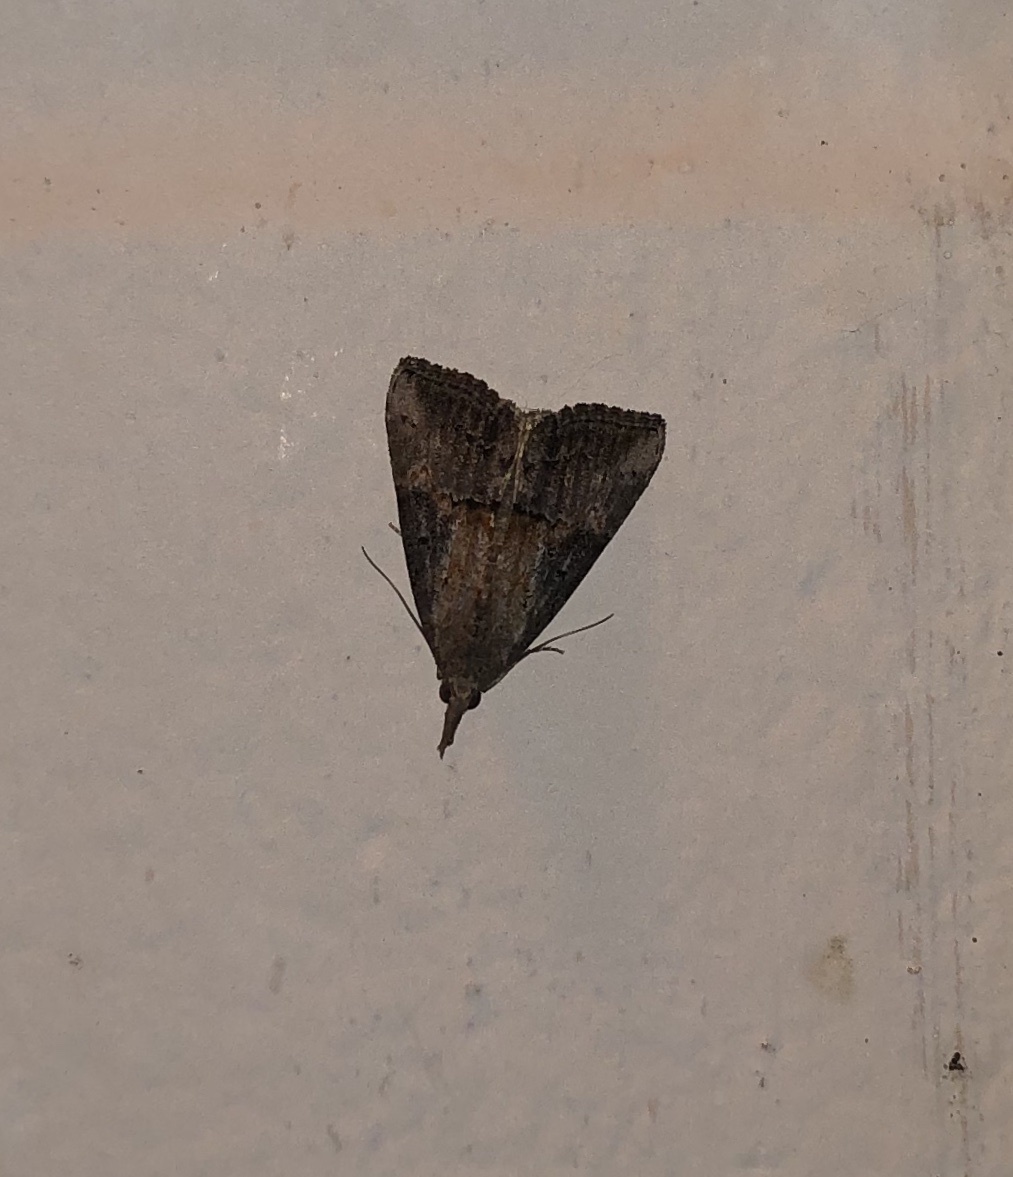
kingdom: Animalia
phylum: Arthropoda
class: Insecta
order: Lepidoptera
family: Erebidae
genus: Hypena
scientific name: Hypena scabra
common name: Green cloverworm
